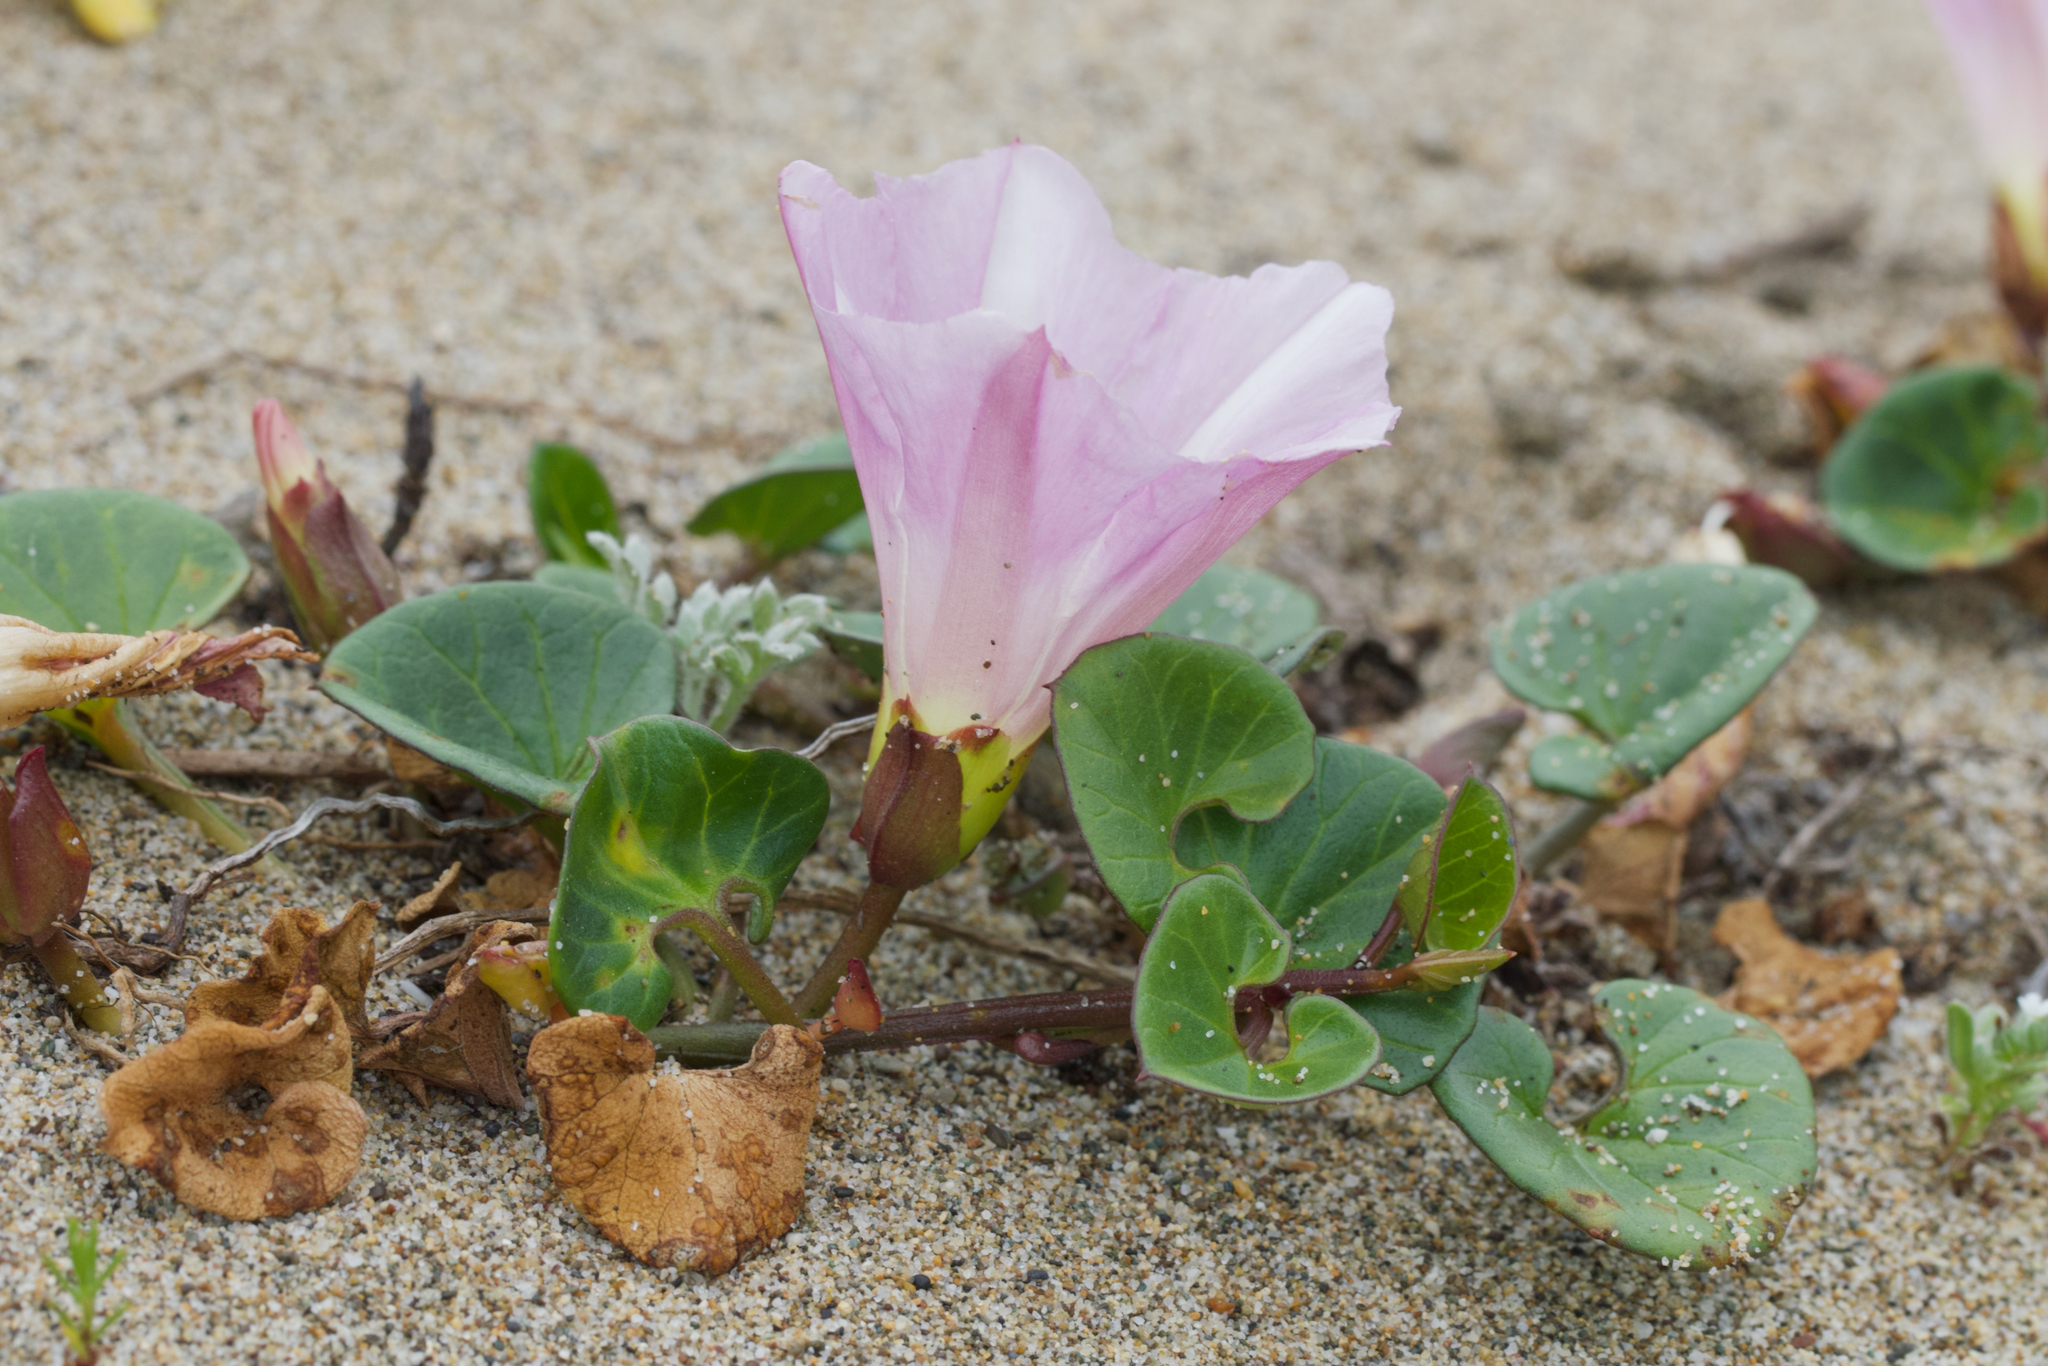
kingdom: Plantae
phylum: Tracheophyta
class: Magnoliopsida
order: Solanales
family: Convolvulaceae
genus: Calystegia
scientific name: Calystegia soldanella
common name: Sea bindweed
